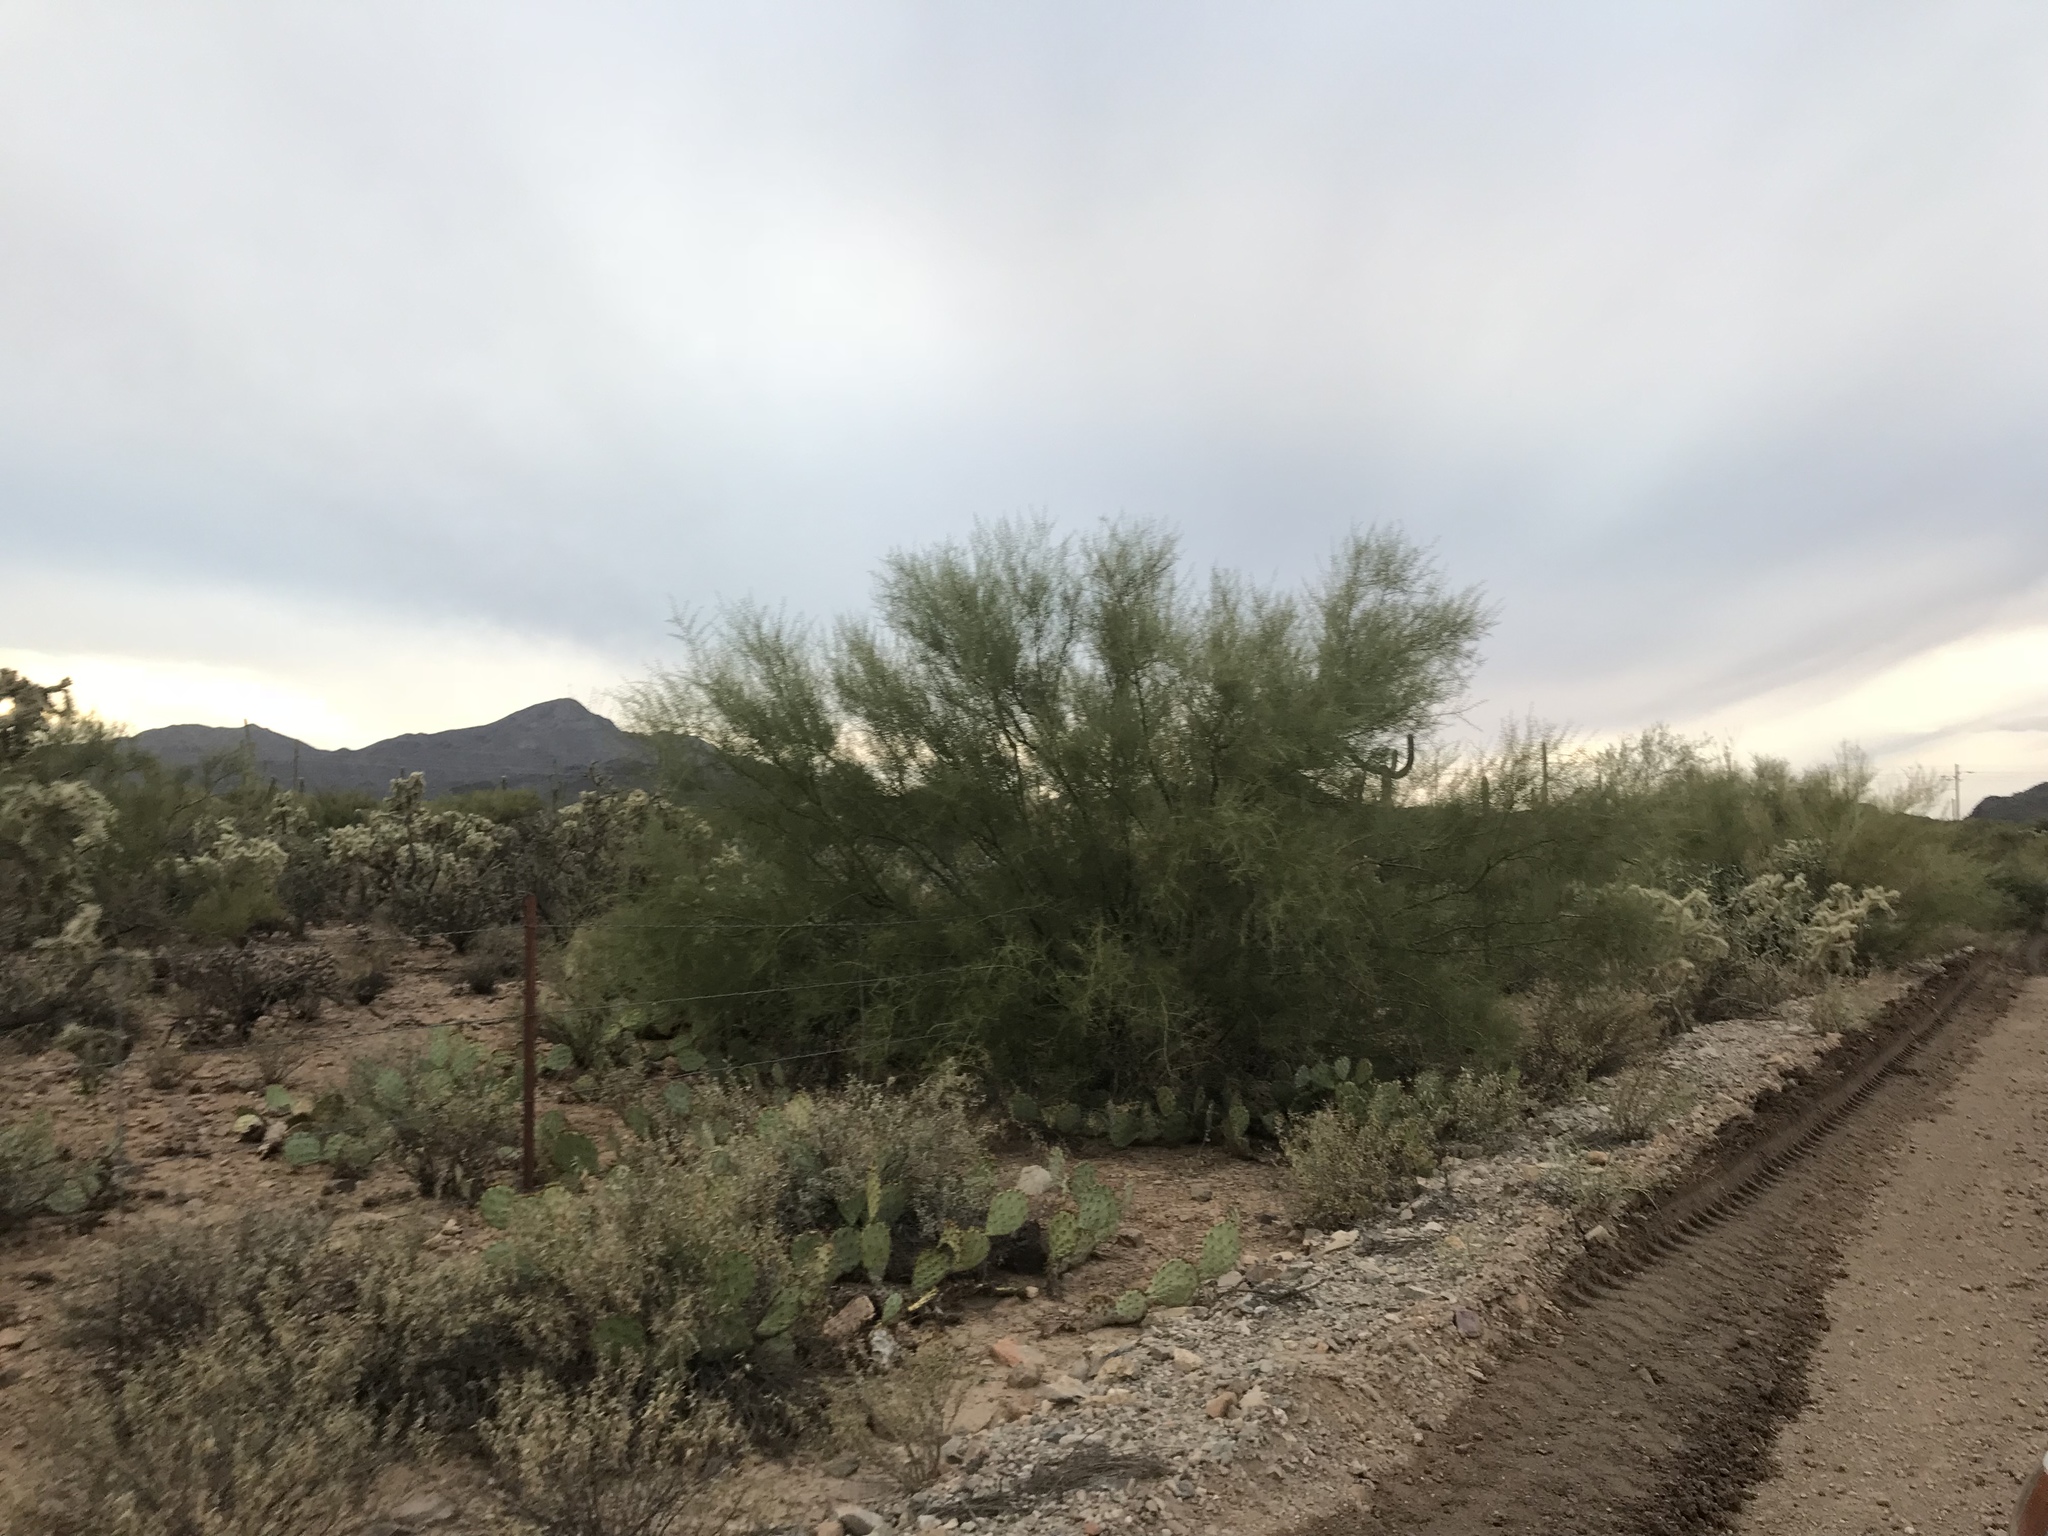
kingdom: Plantae
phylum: Tracheophyta
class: Magnoliopsida
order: Fabales
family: Fabaceae
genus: Parkinsonia
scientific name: Parkinsonia florida
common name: Blue paloverde
